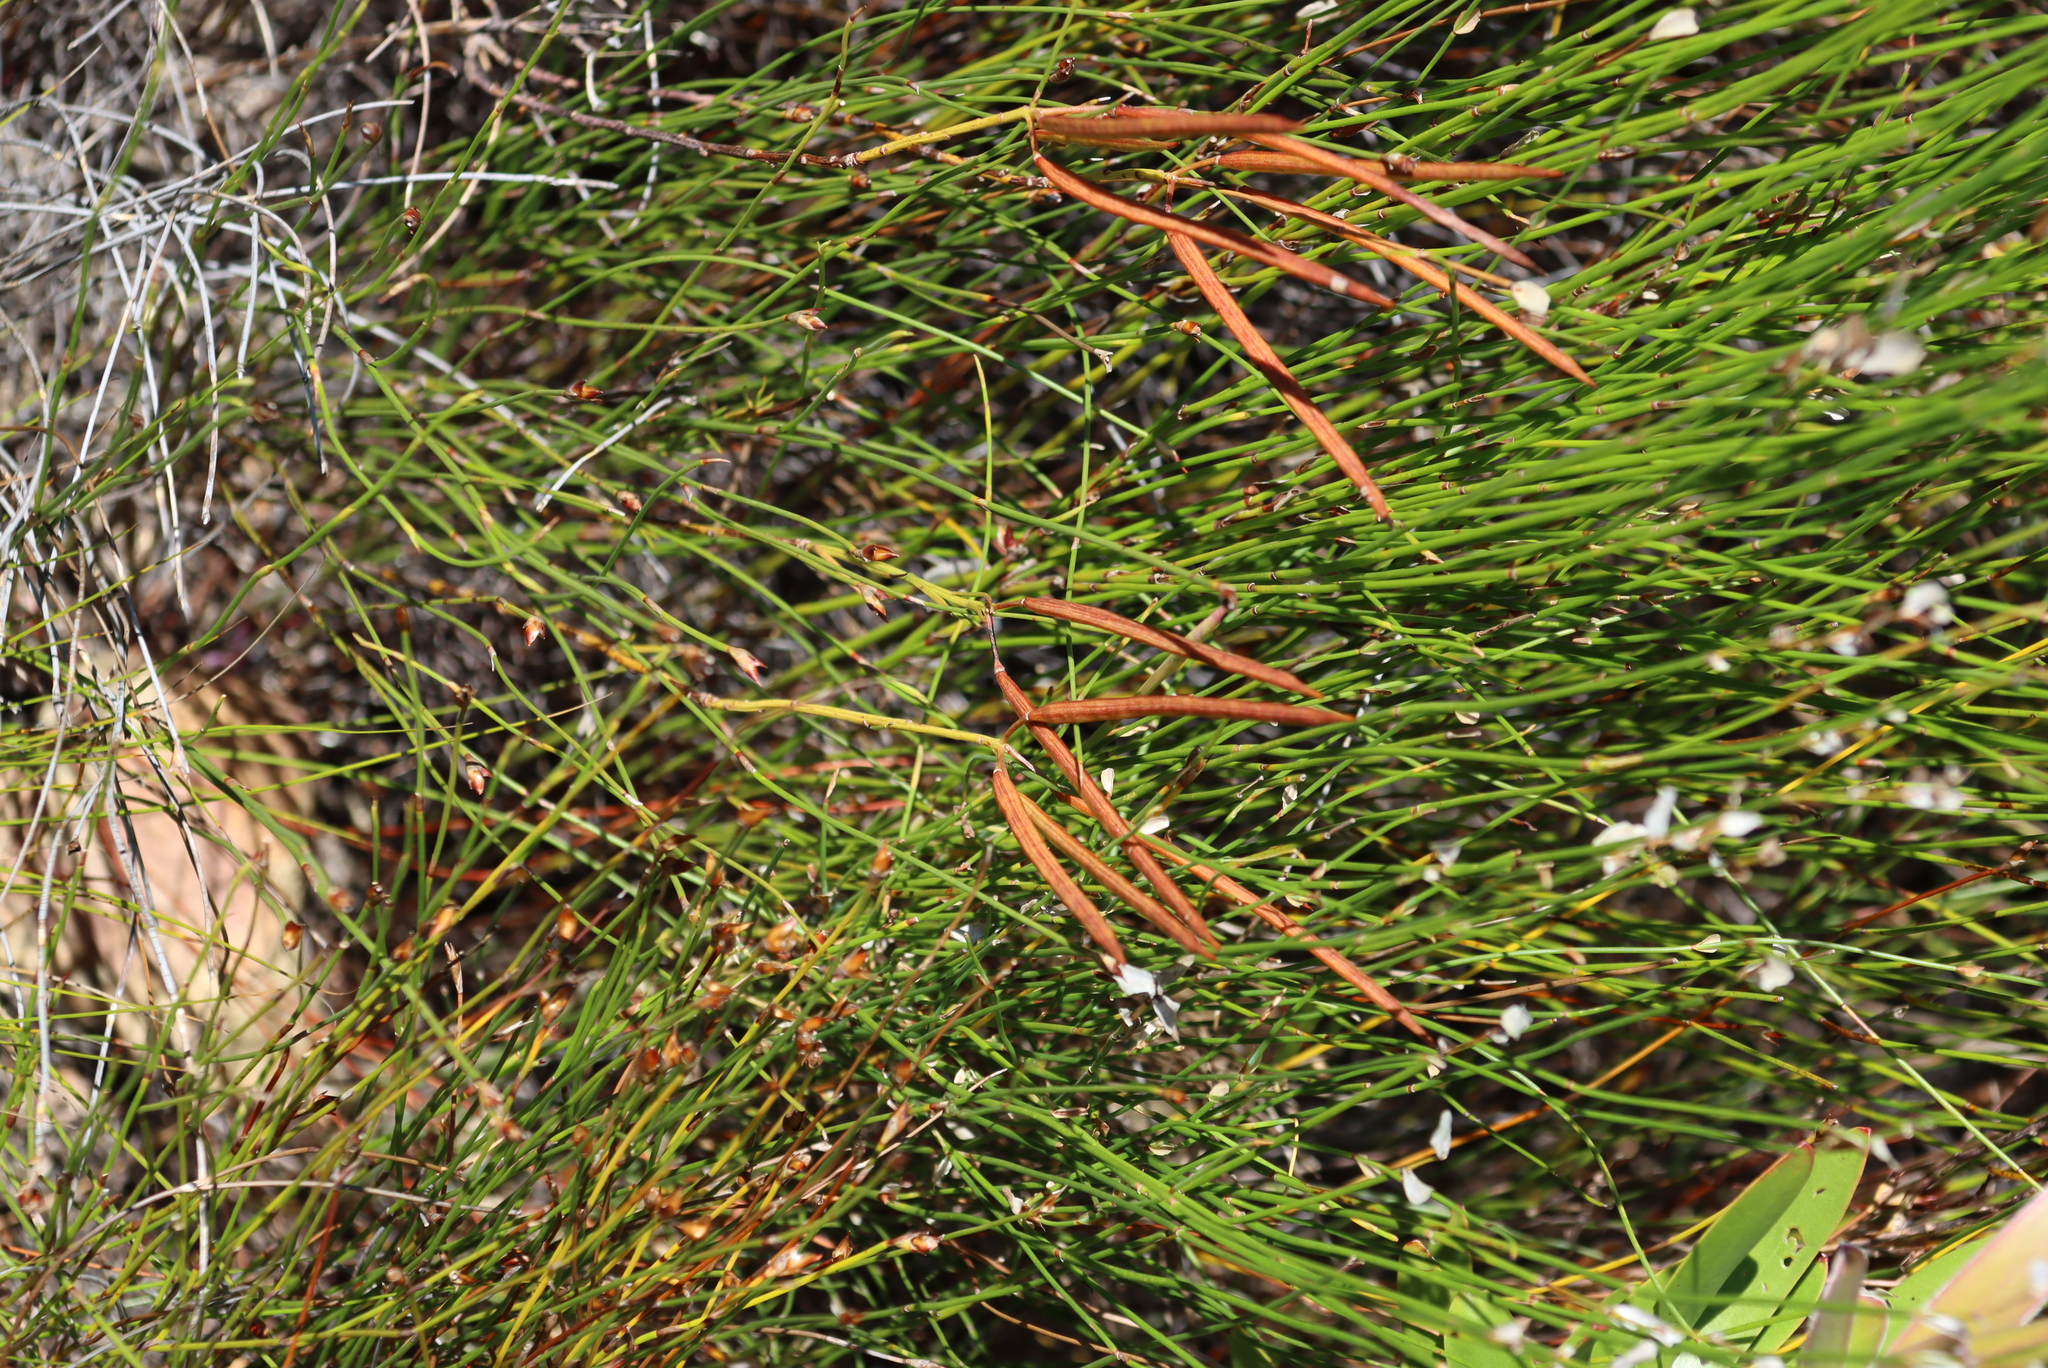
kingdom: Plantae
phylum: Tracheophyta
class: Magnoliopsida
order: Brassicales
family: Brassicaceae
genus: Heliophila
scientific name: Heliophila scoparia
